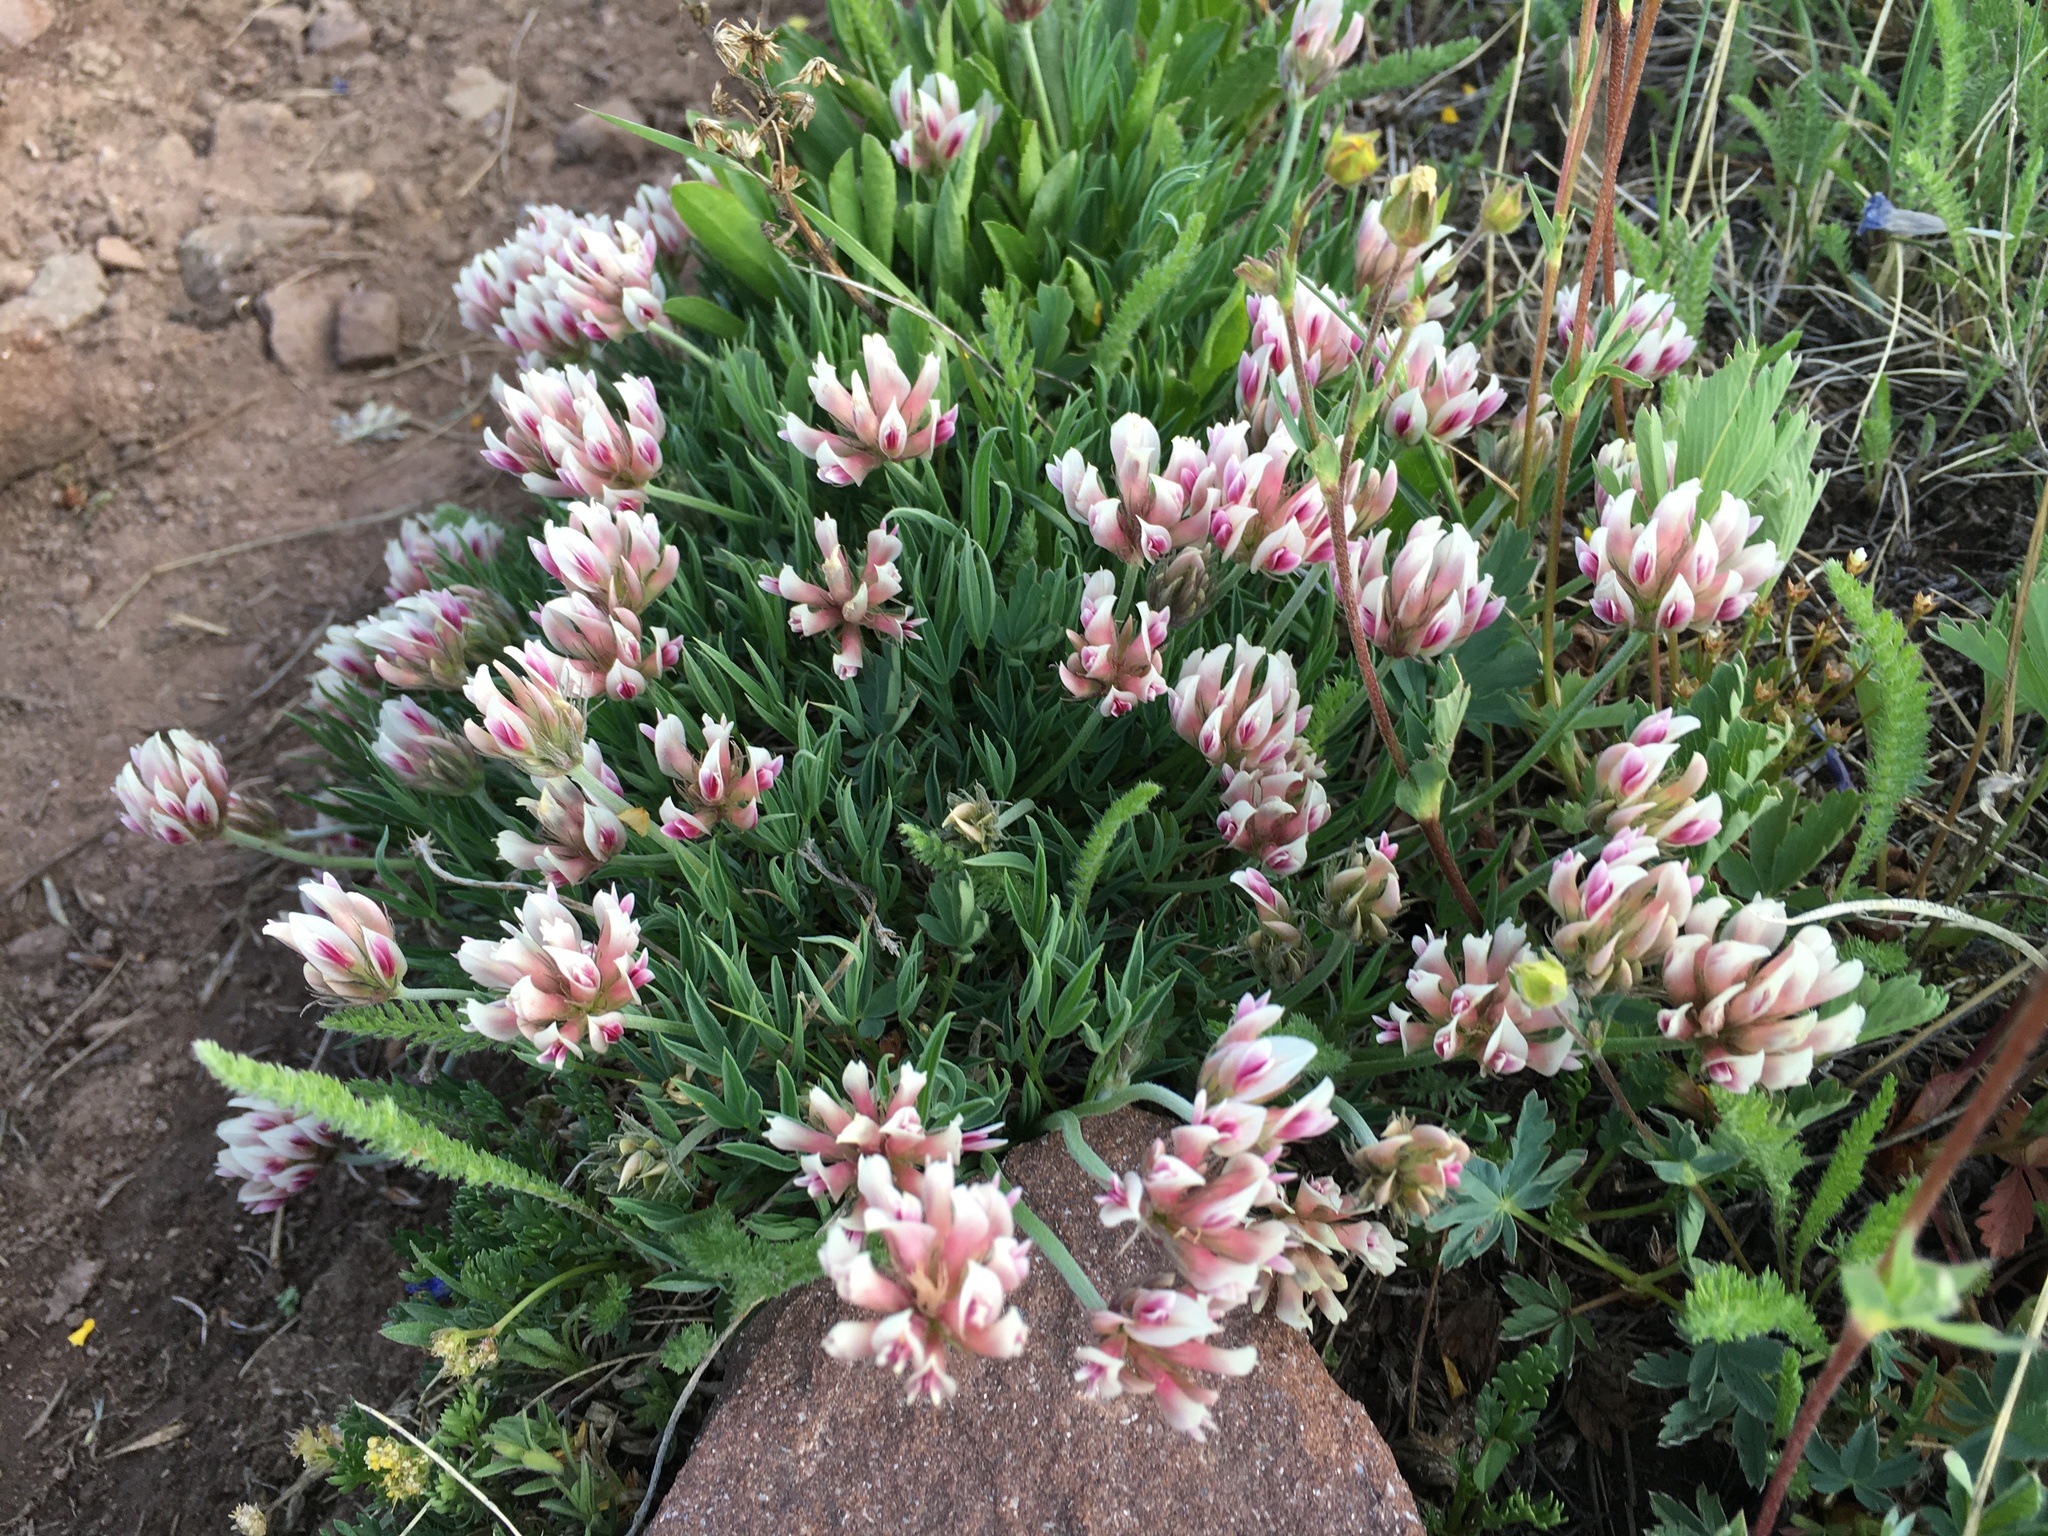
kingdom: Plantae
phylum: Tracheophyta
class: Magnoliopsida
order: Fabales
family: Fabaceae
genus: Trifolium
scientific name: Trifolium dasyphyllum
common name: Whip-root clover
